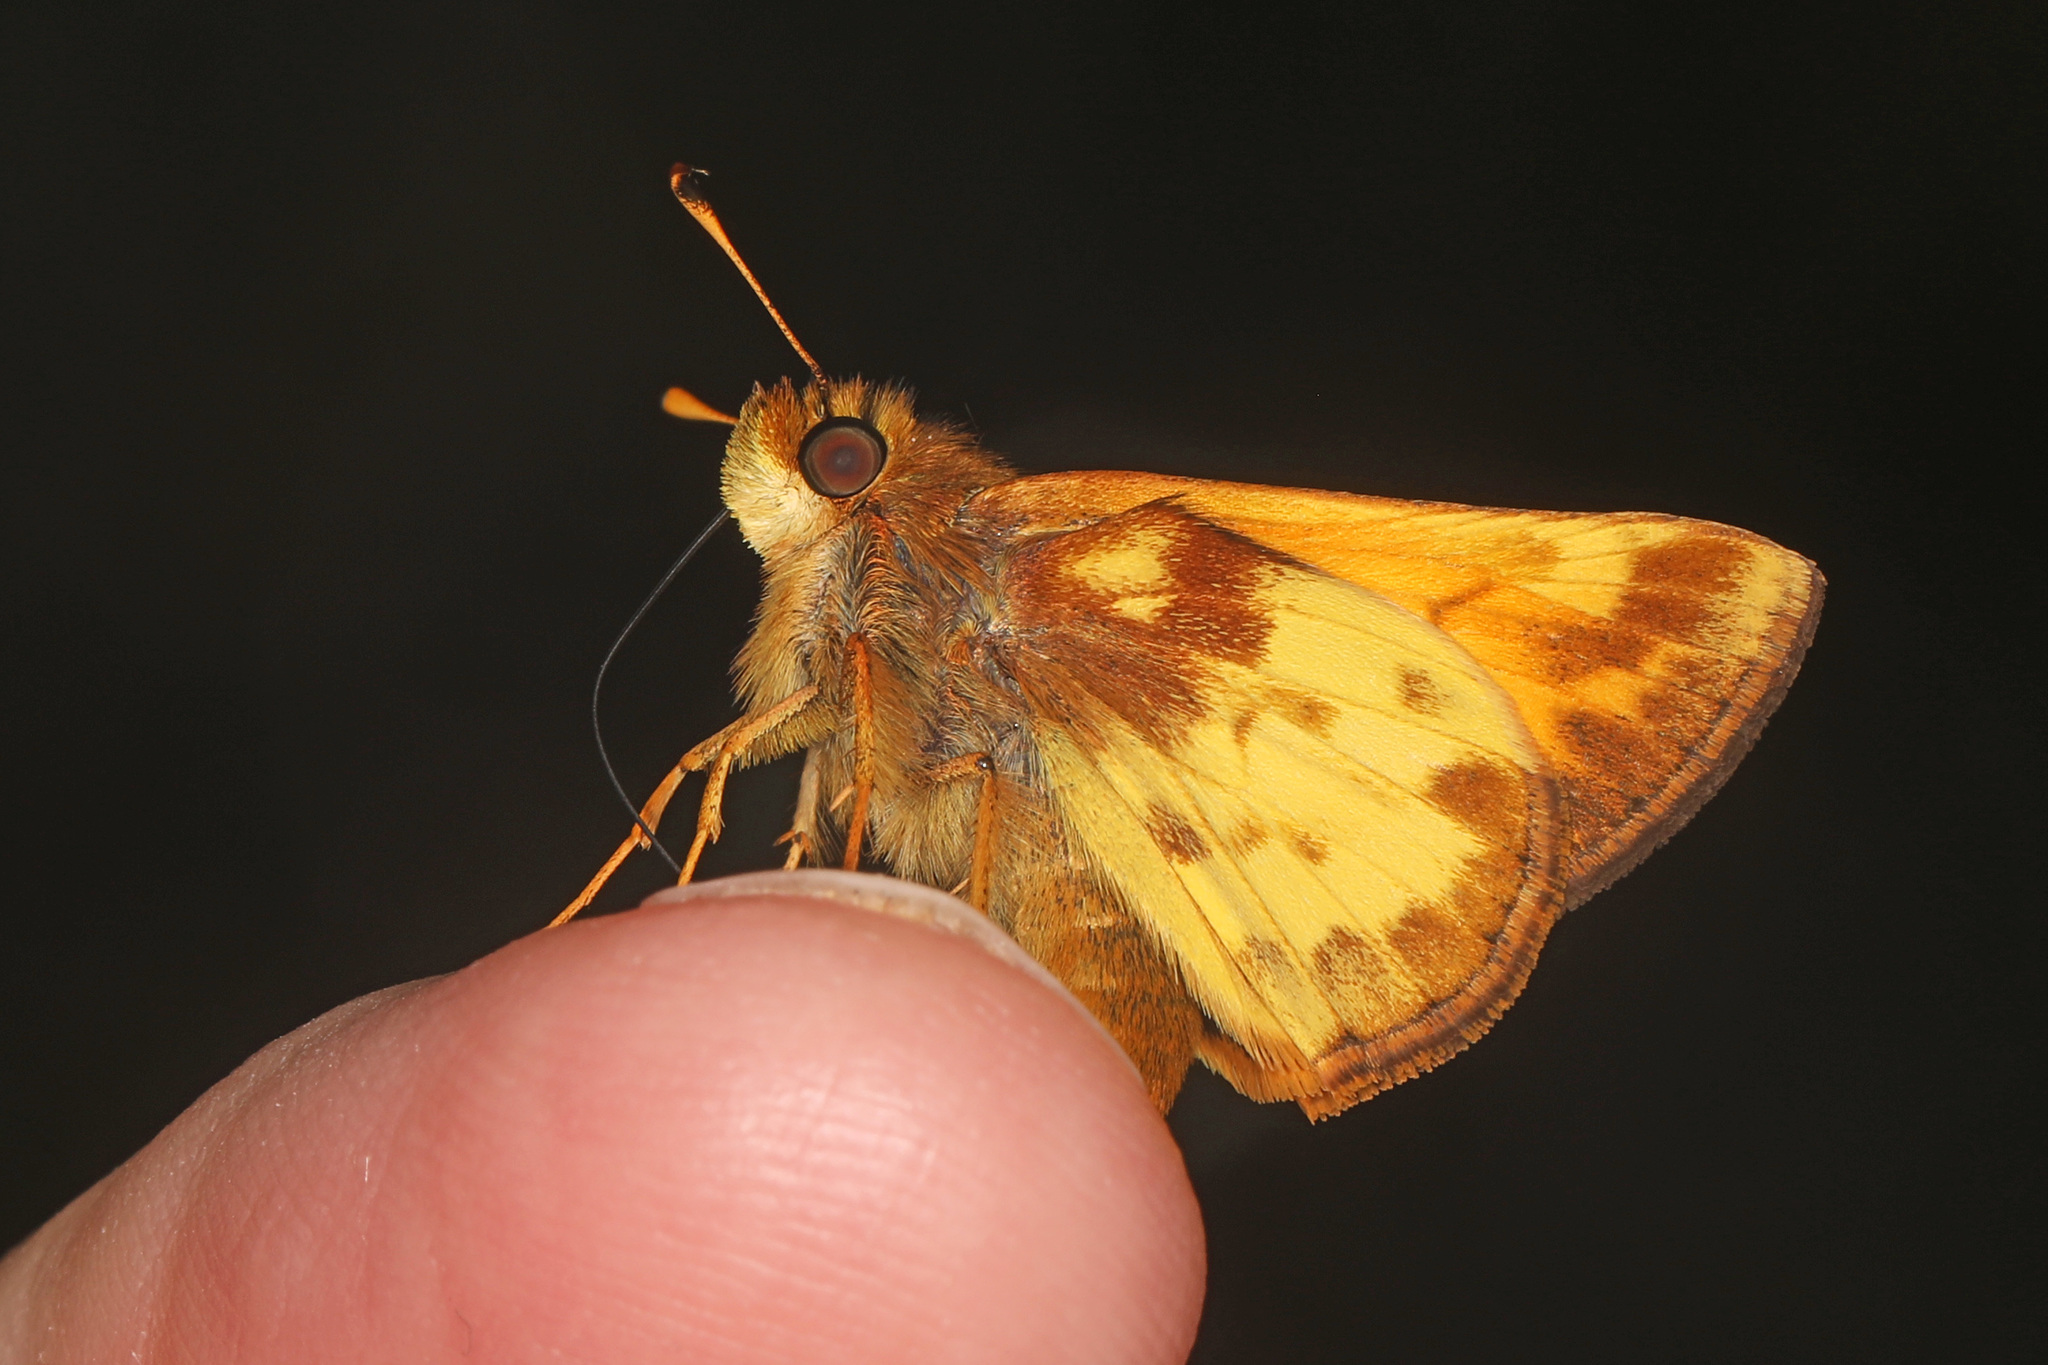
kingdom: Animalia
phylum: Arthropoda
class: Insecta
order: Lepidoptera
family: Hesperiidae
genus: Lon
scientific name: Lon zabulon
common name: Zabulon skipper
